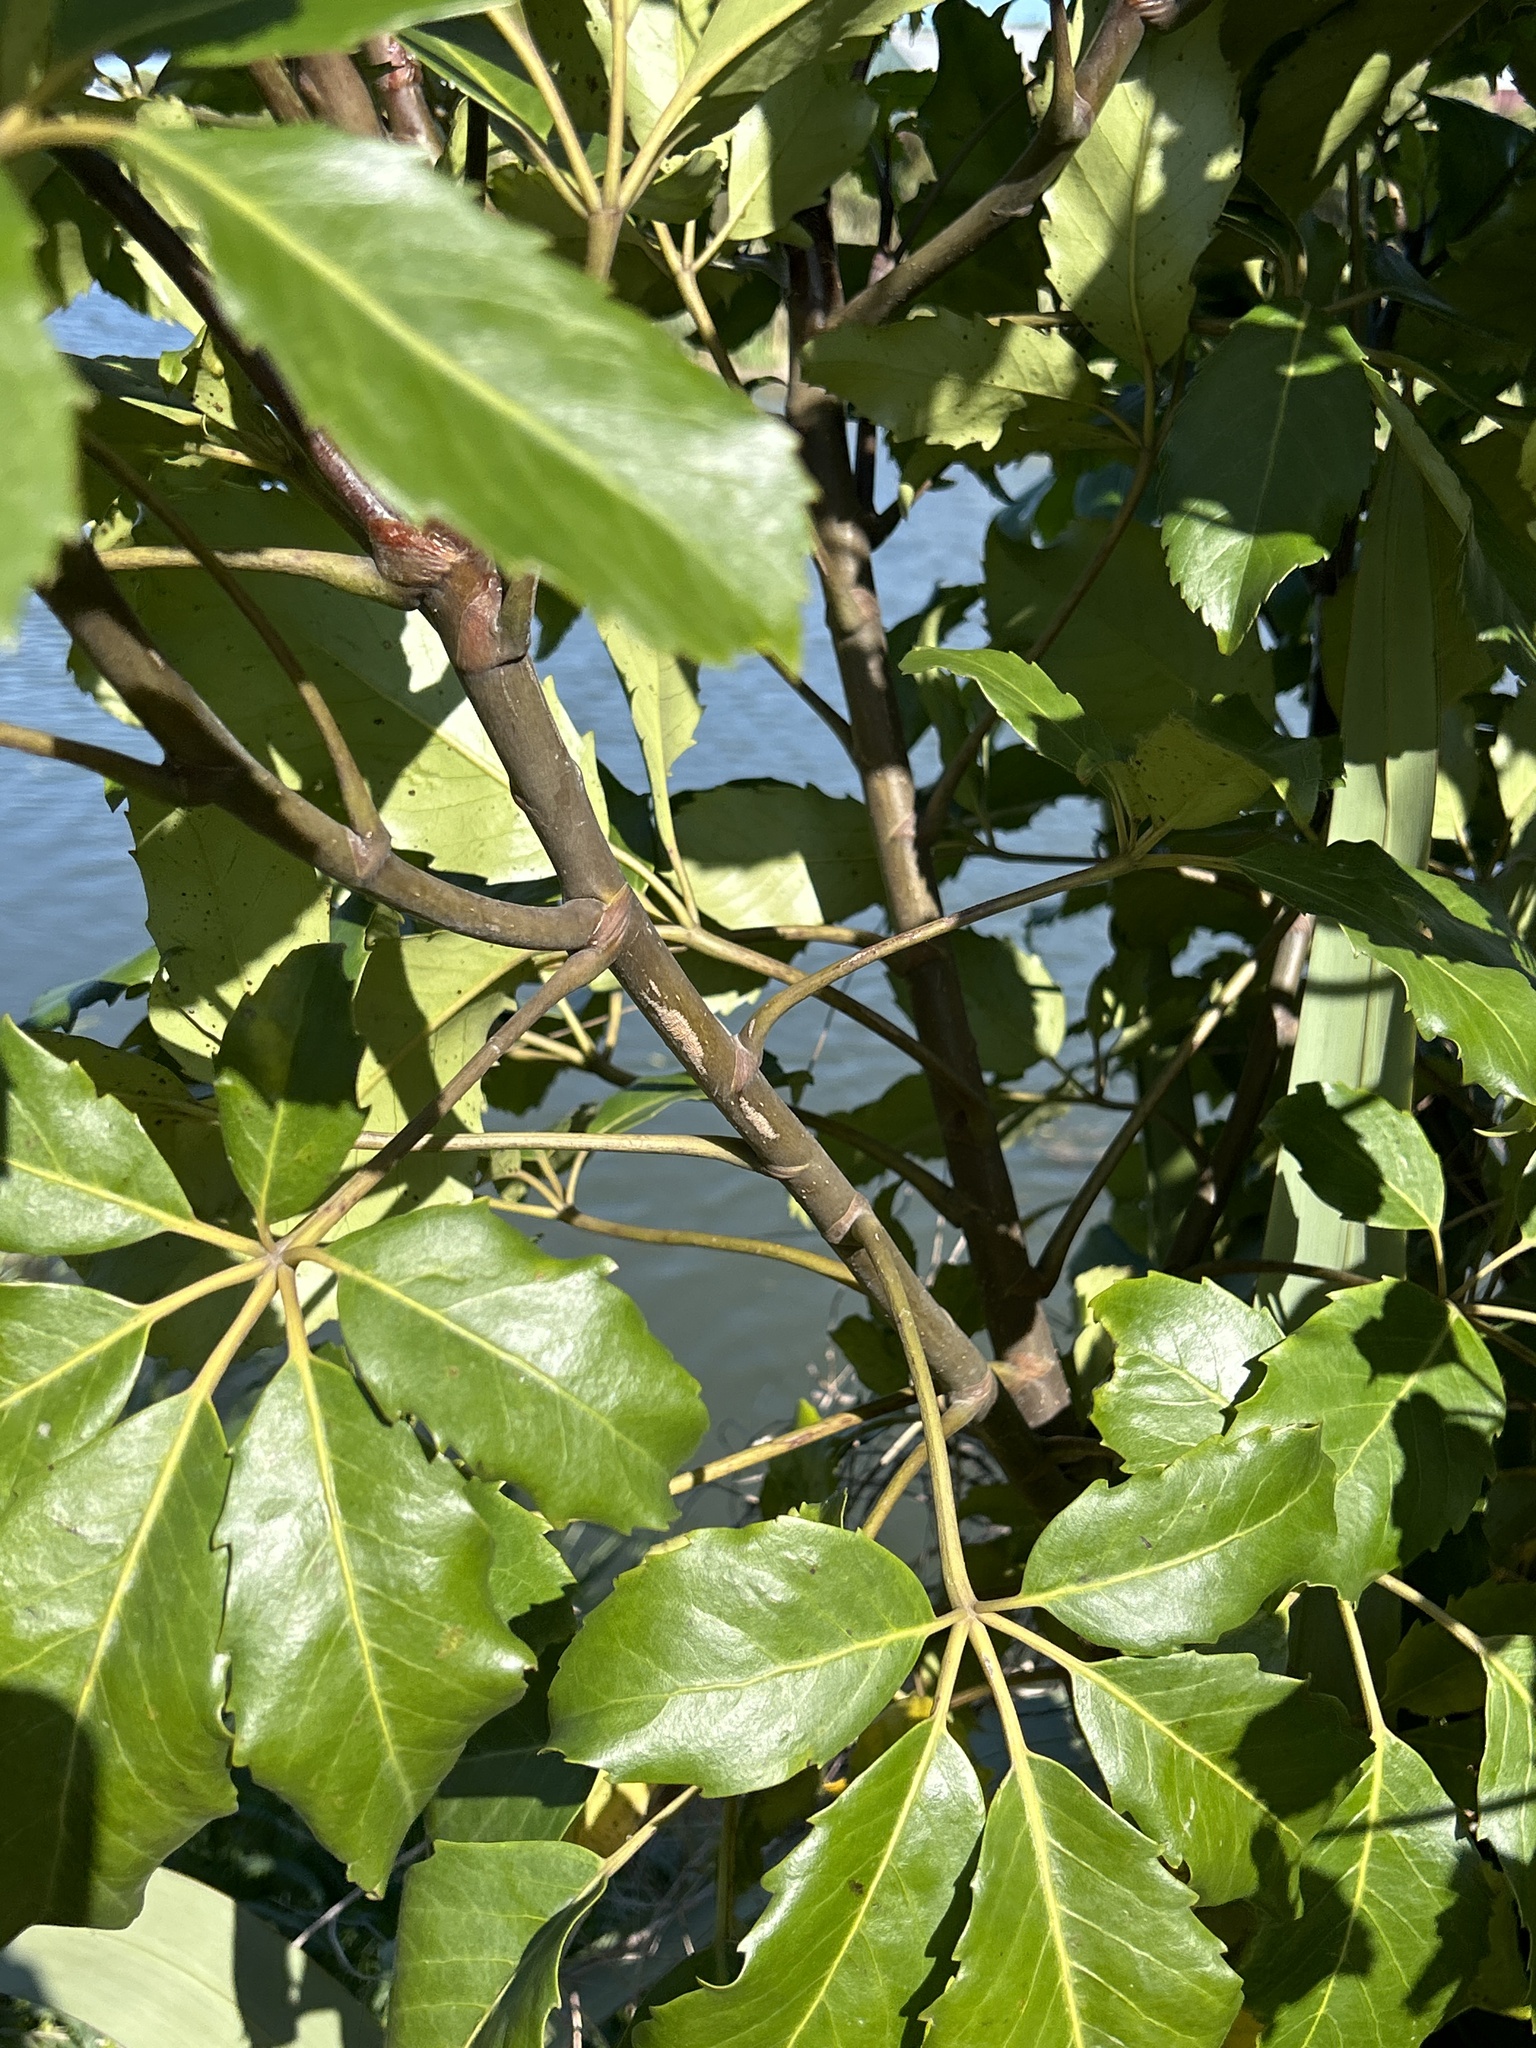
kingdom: Plantae
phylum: Tracheophyta
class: Magnoliopsida
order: Apiales
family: Araliaceae
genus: Neopanax
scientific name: Neopanax arboreus
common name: Five-fingers
